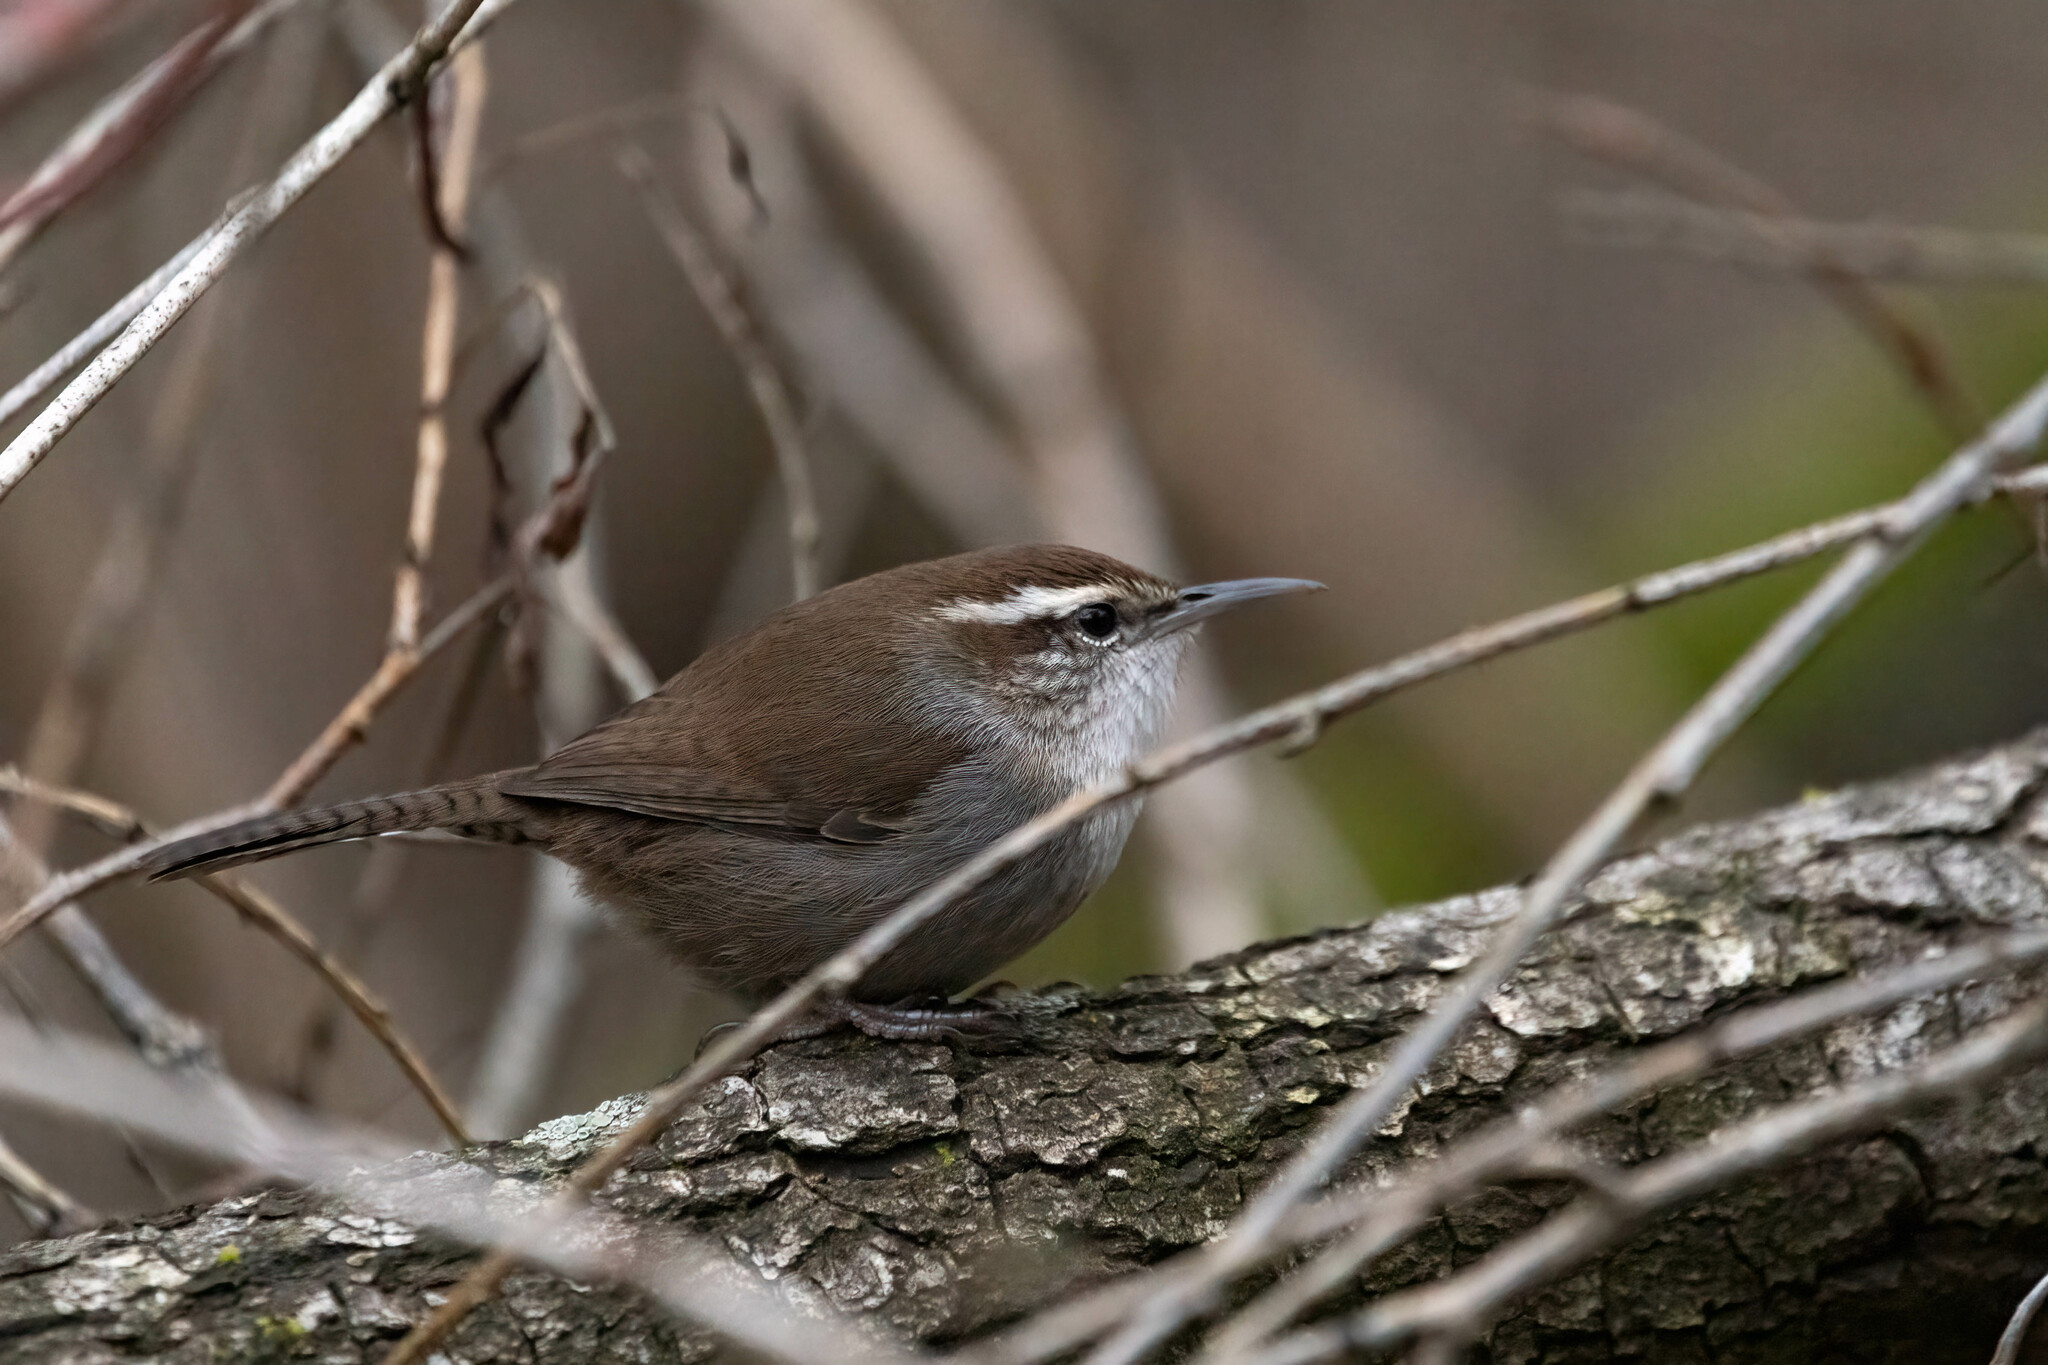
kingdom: Animalia
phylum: Chordata
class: Aves
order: Passeriformes
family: Troglodytidae
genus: Thryomanes
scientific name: Thryomanes bewickii
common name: Bewick's wren
